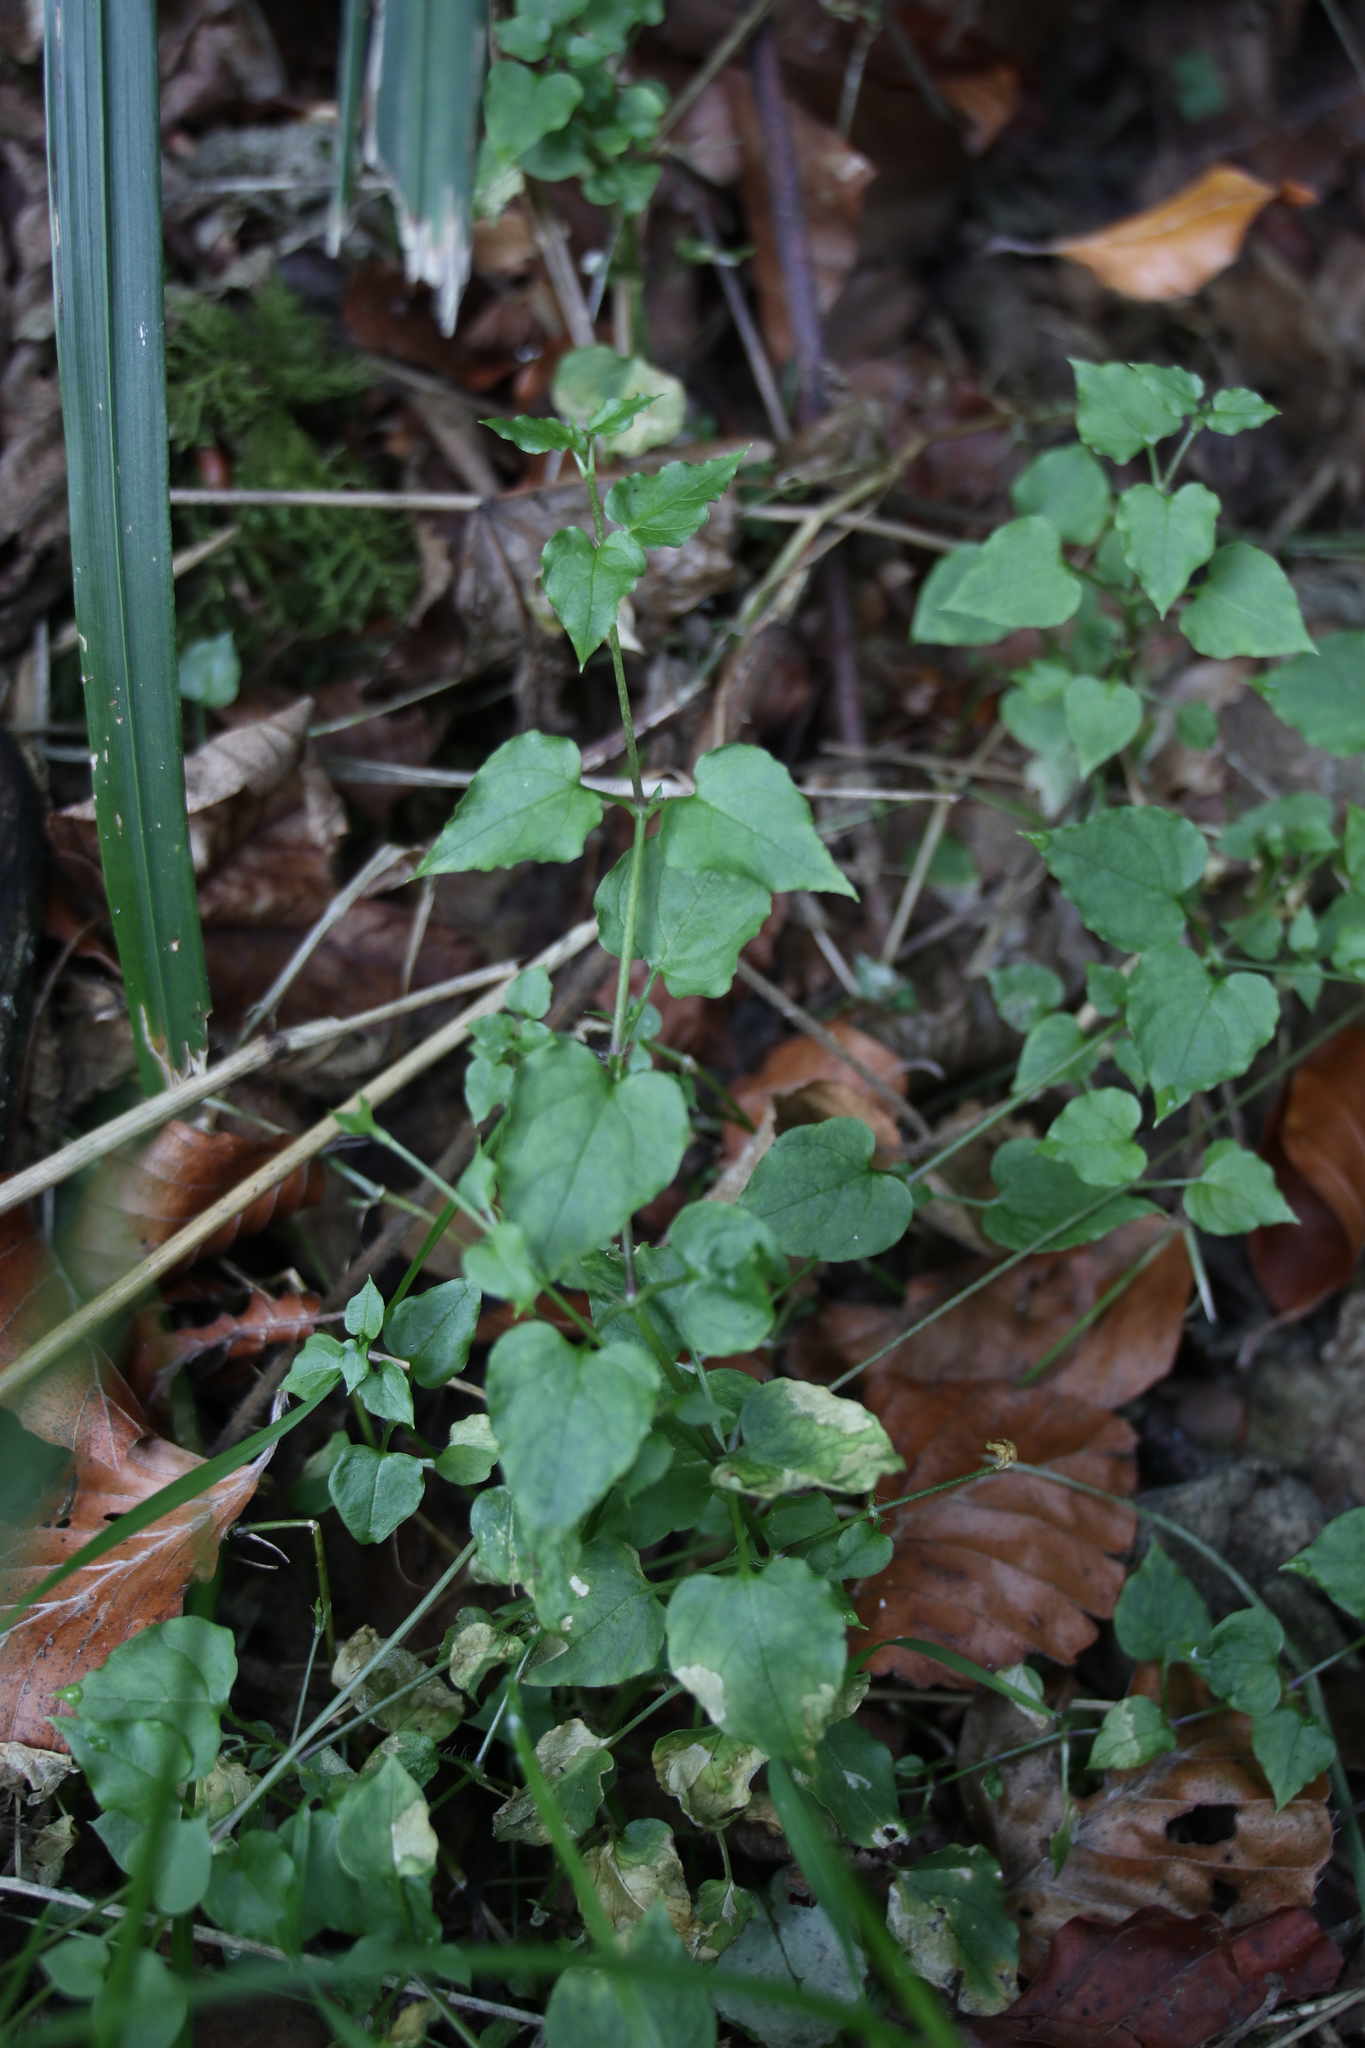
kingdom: Plantae
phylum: Tracheophyta
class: Magnoliopsida
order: Caryophyllales
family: Caryophyllaceae
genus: Stellaria
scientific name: Stellaria nemorum
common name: Wood stitchwort
